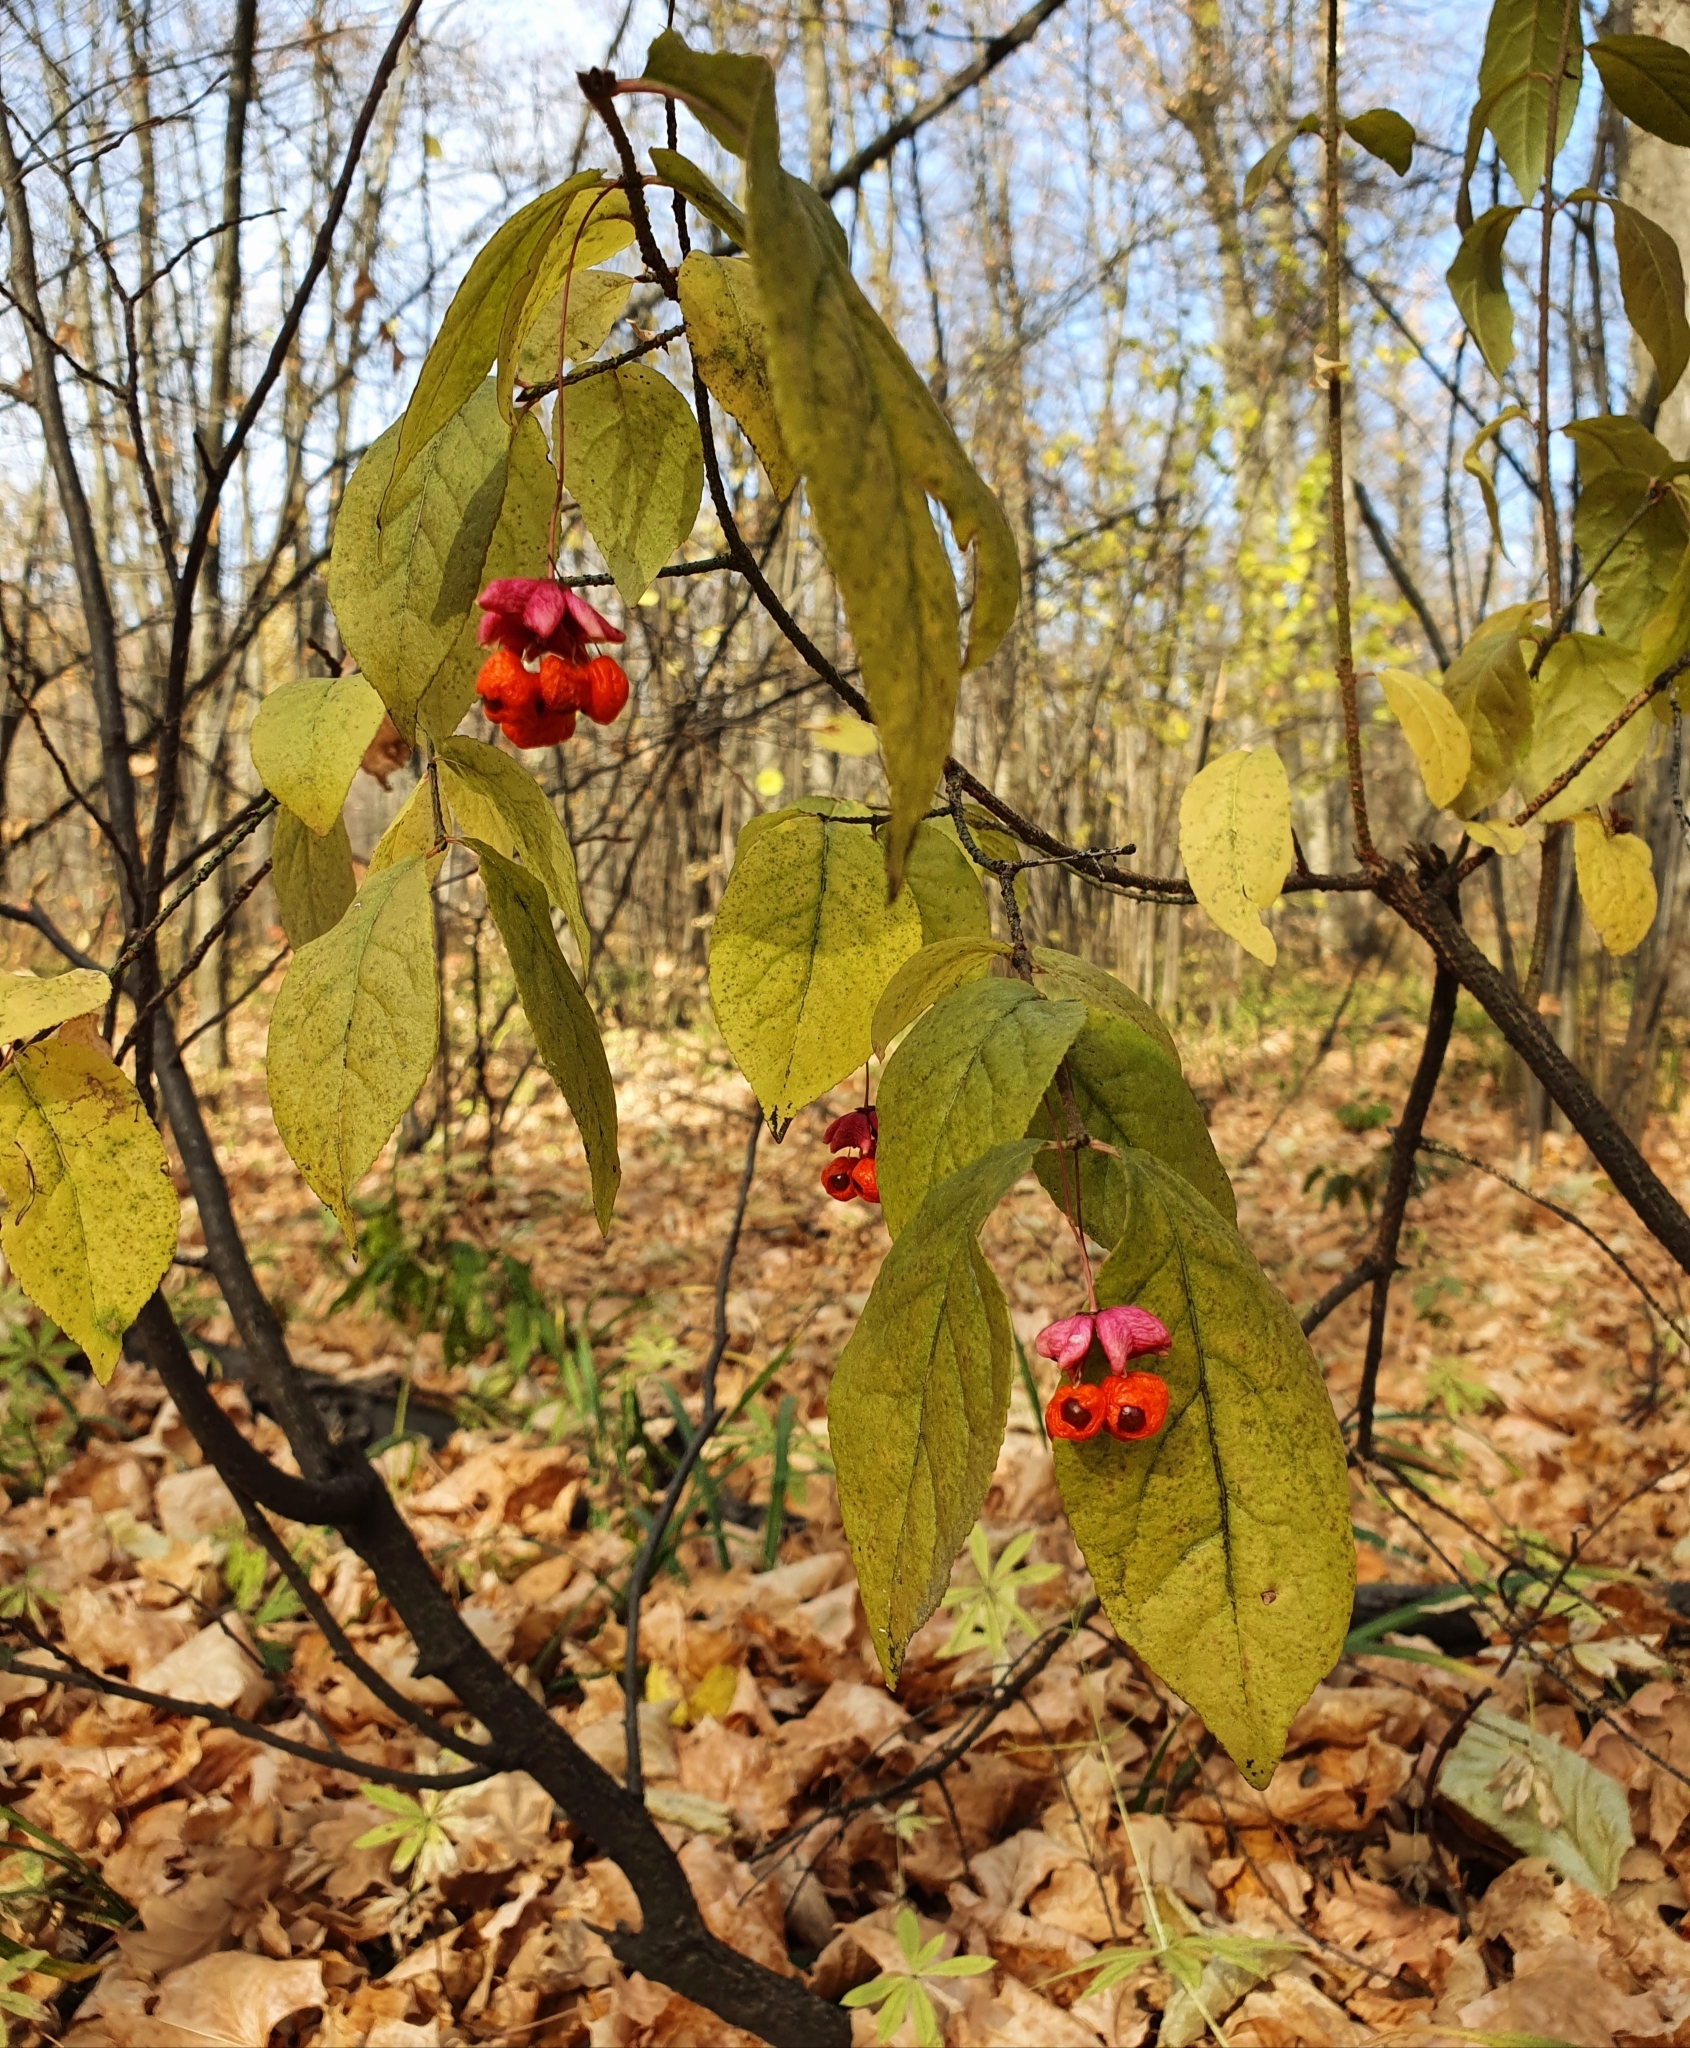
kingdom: Plantae
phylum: Tracheophyta
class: Magnoliopsida
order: Celastrales
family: Celastraceae
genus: Euonymus
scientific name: Euonymus verrucosus
